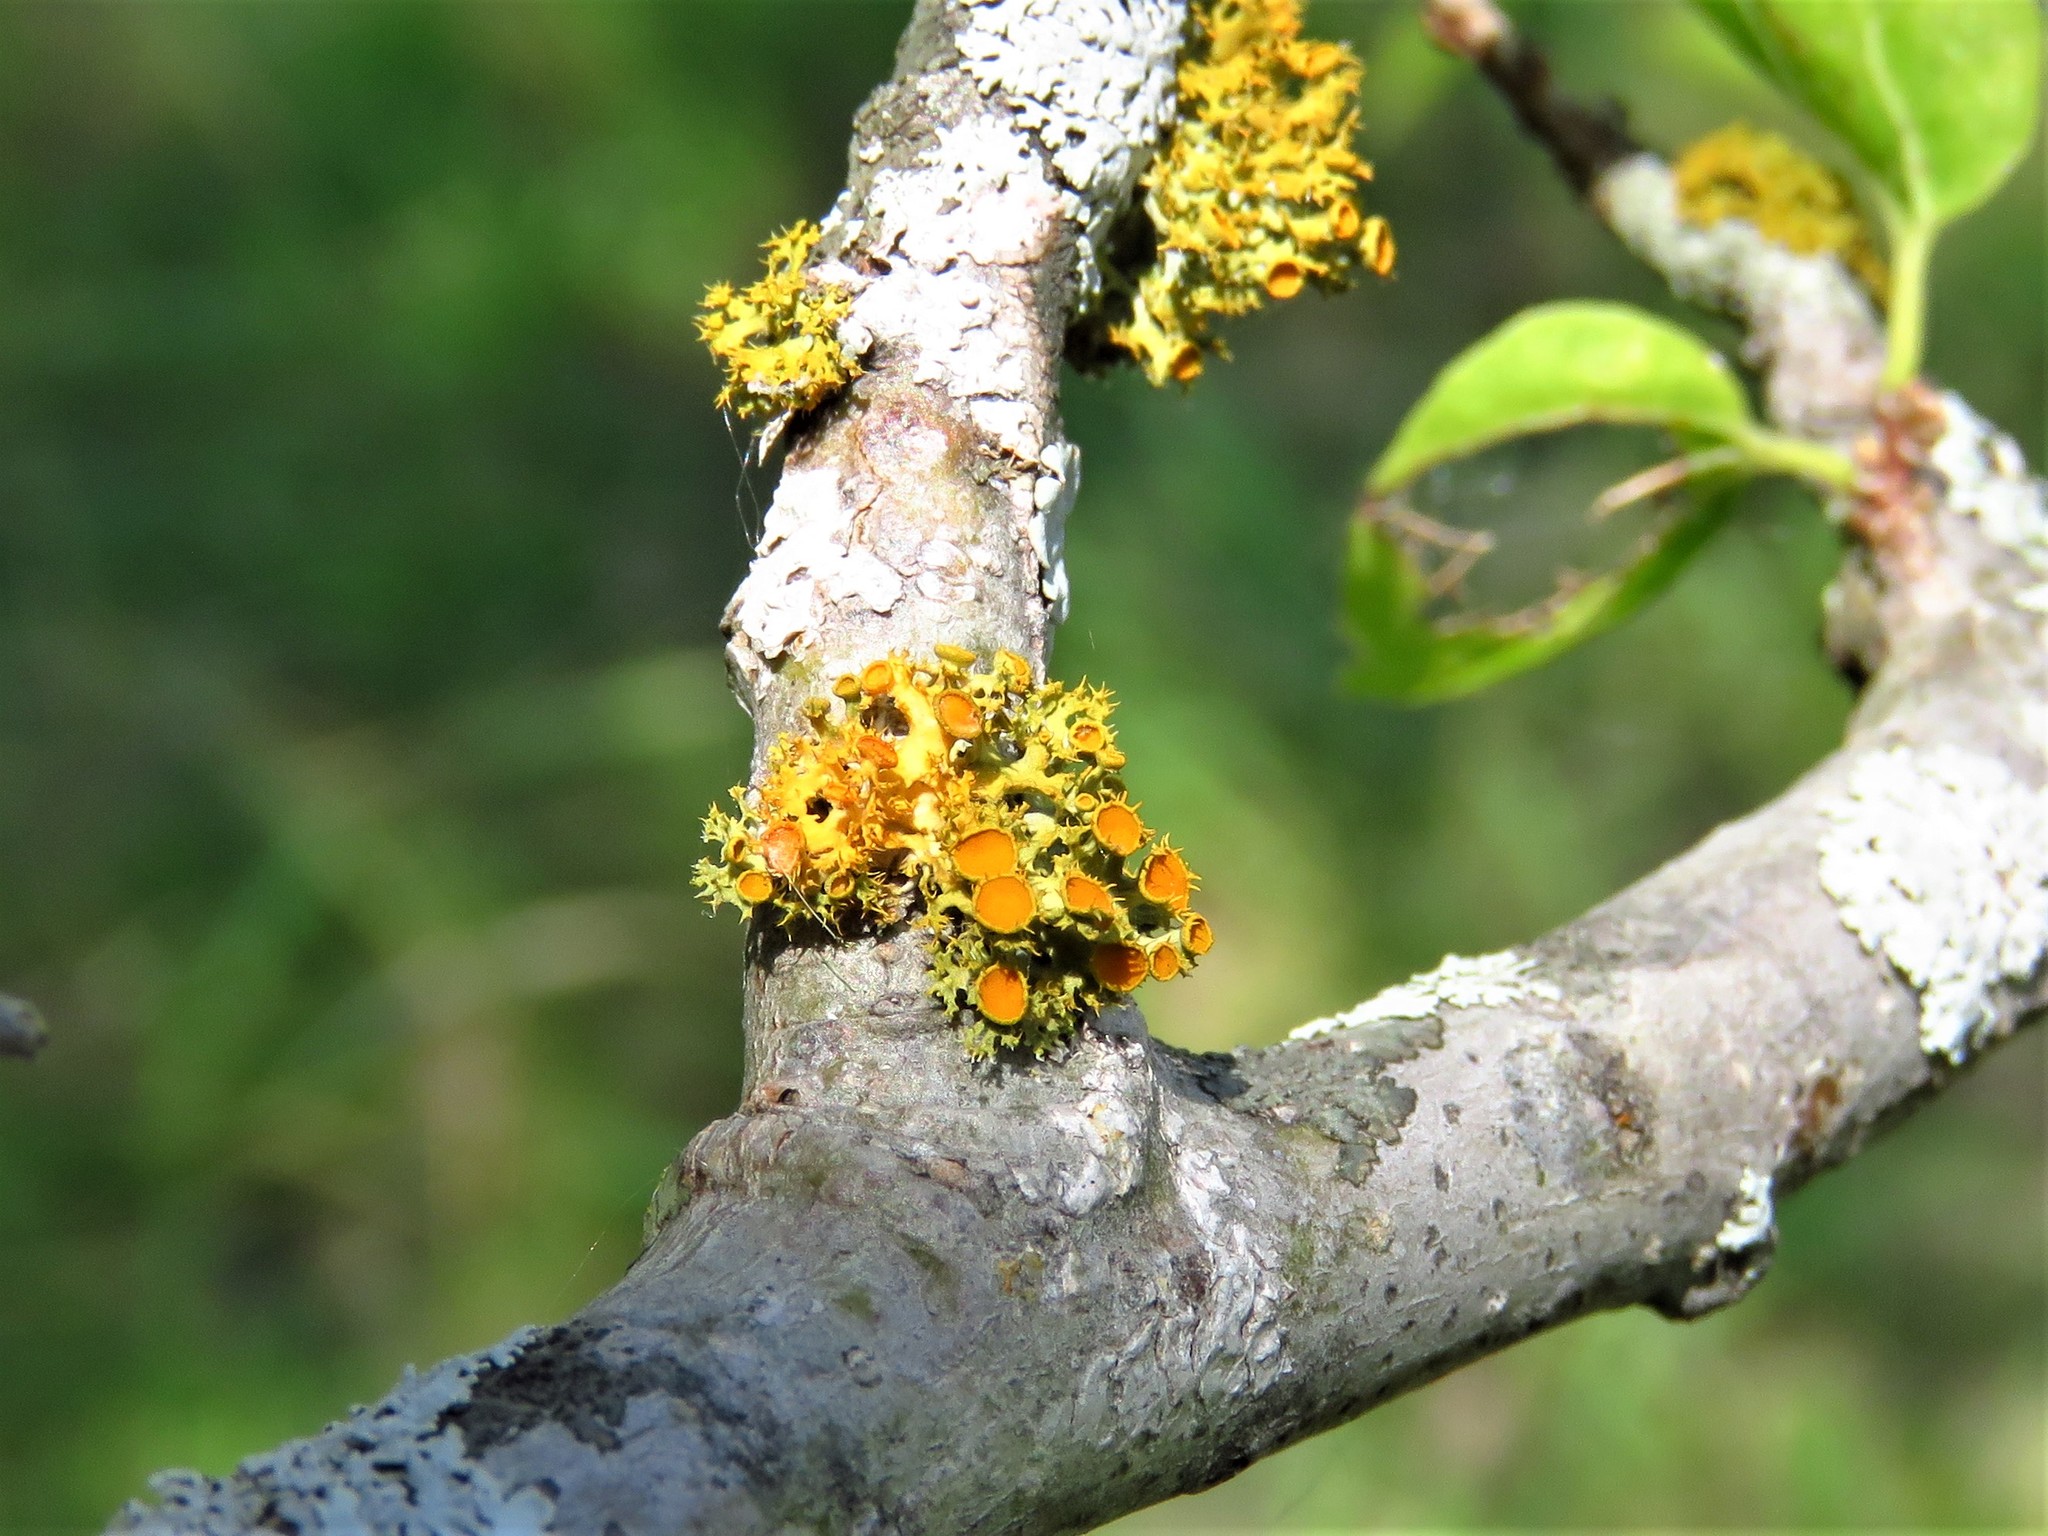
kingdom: Fungi
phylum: Ascomycota
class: Lecanoromycetes
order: Teloschistales
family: Teloschistaceae
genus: Niorma
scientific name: Niorma chrysophthalma
